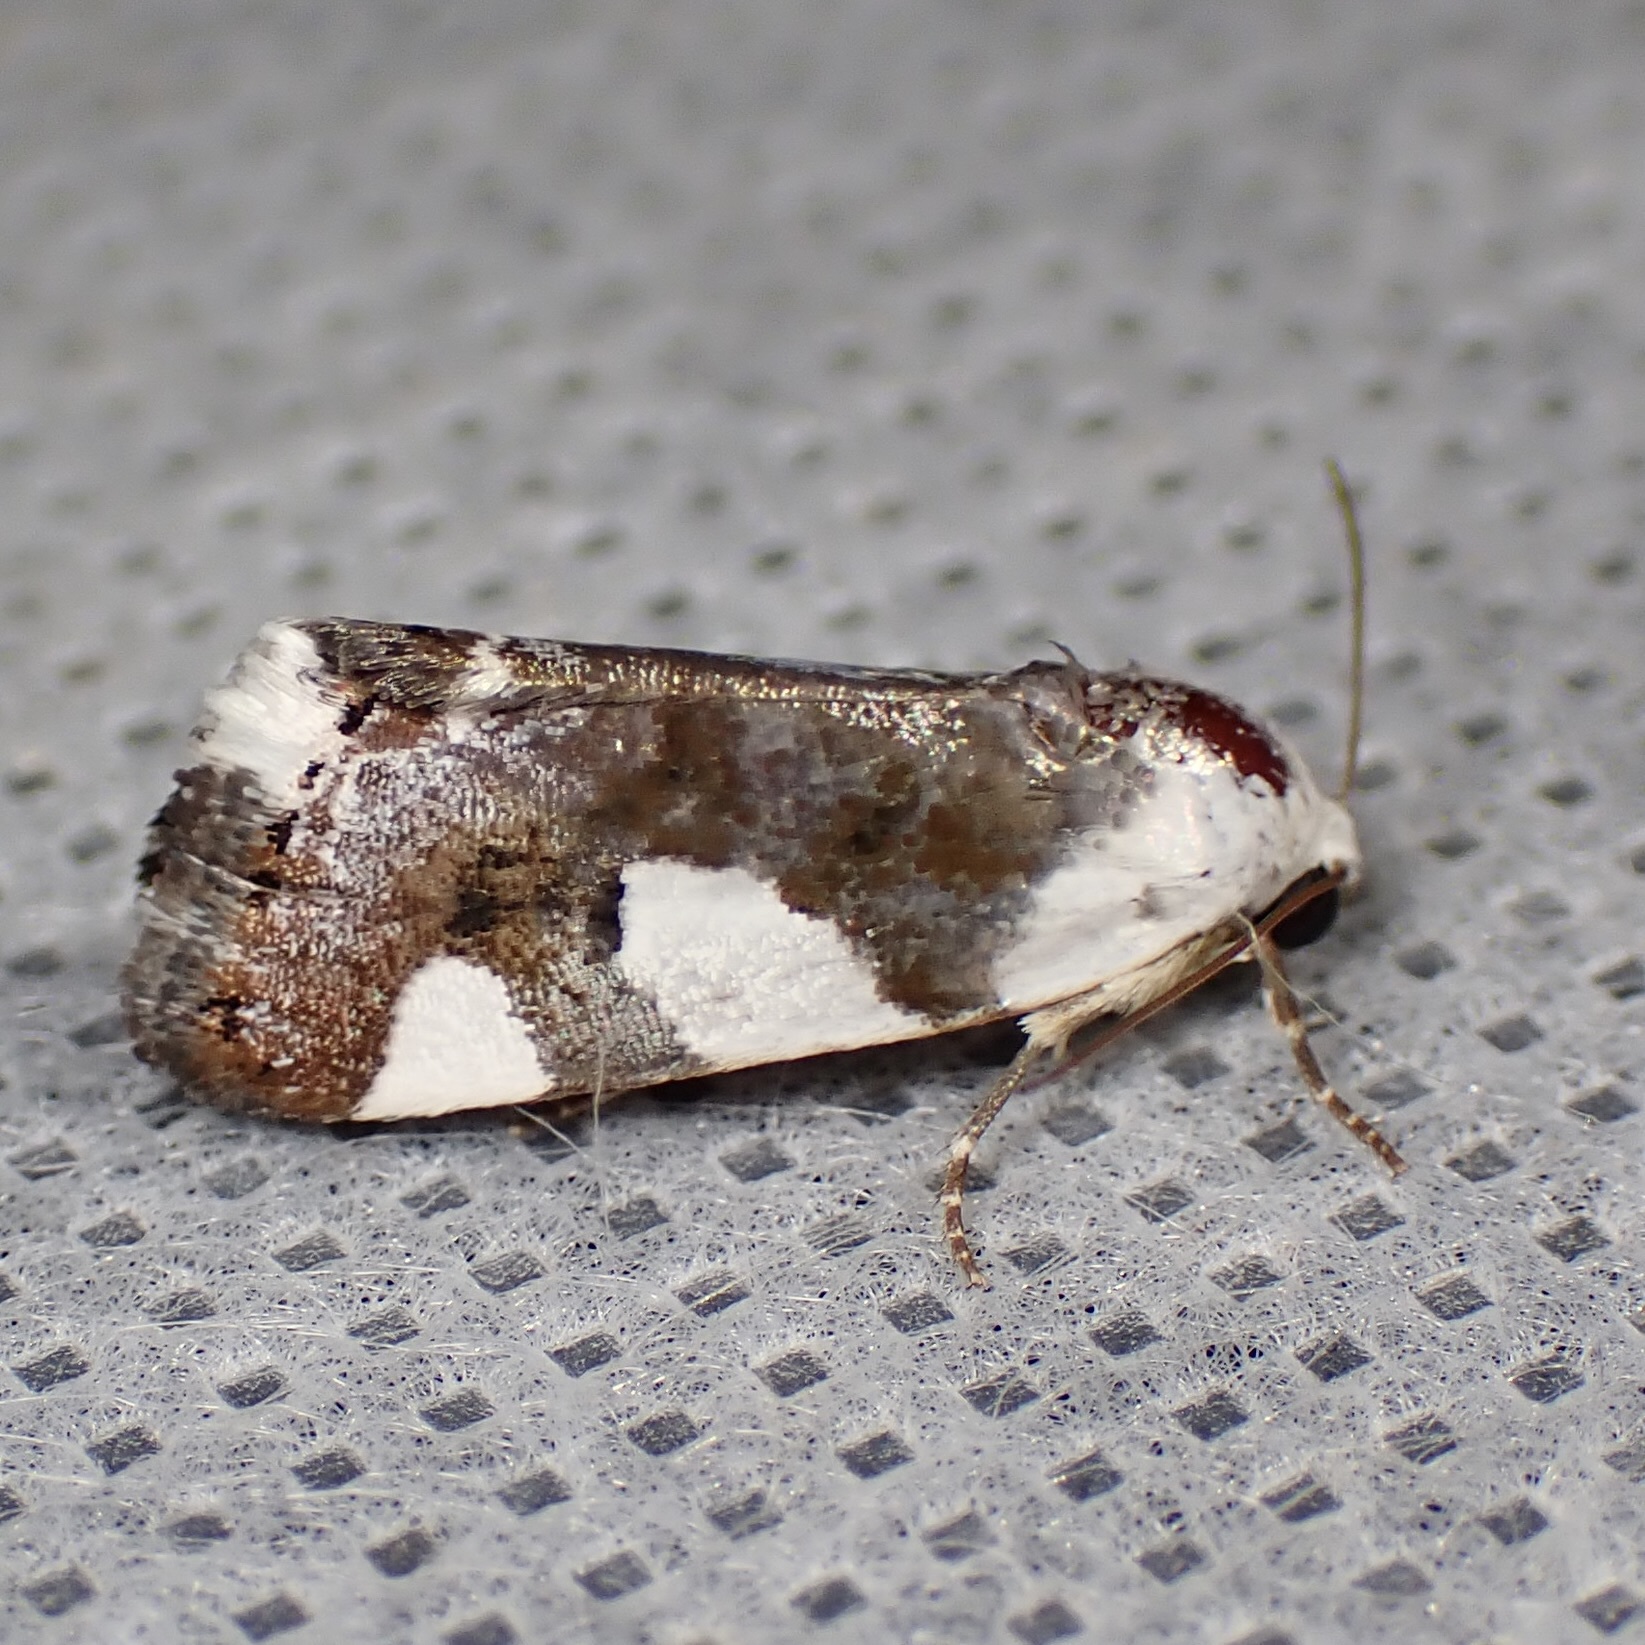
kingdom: Animalia
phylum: Arthropoda
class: Insecta
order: Lepidoptera
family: Noctuidae
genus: Acontia
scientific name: Acontia lucasi
